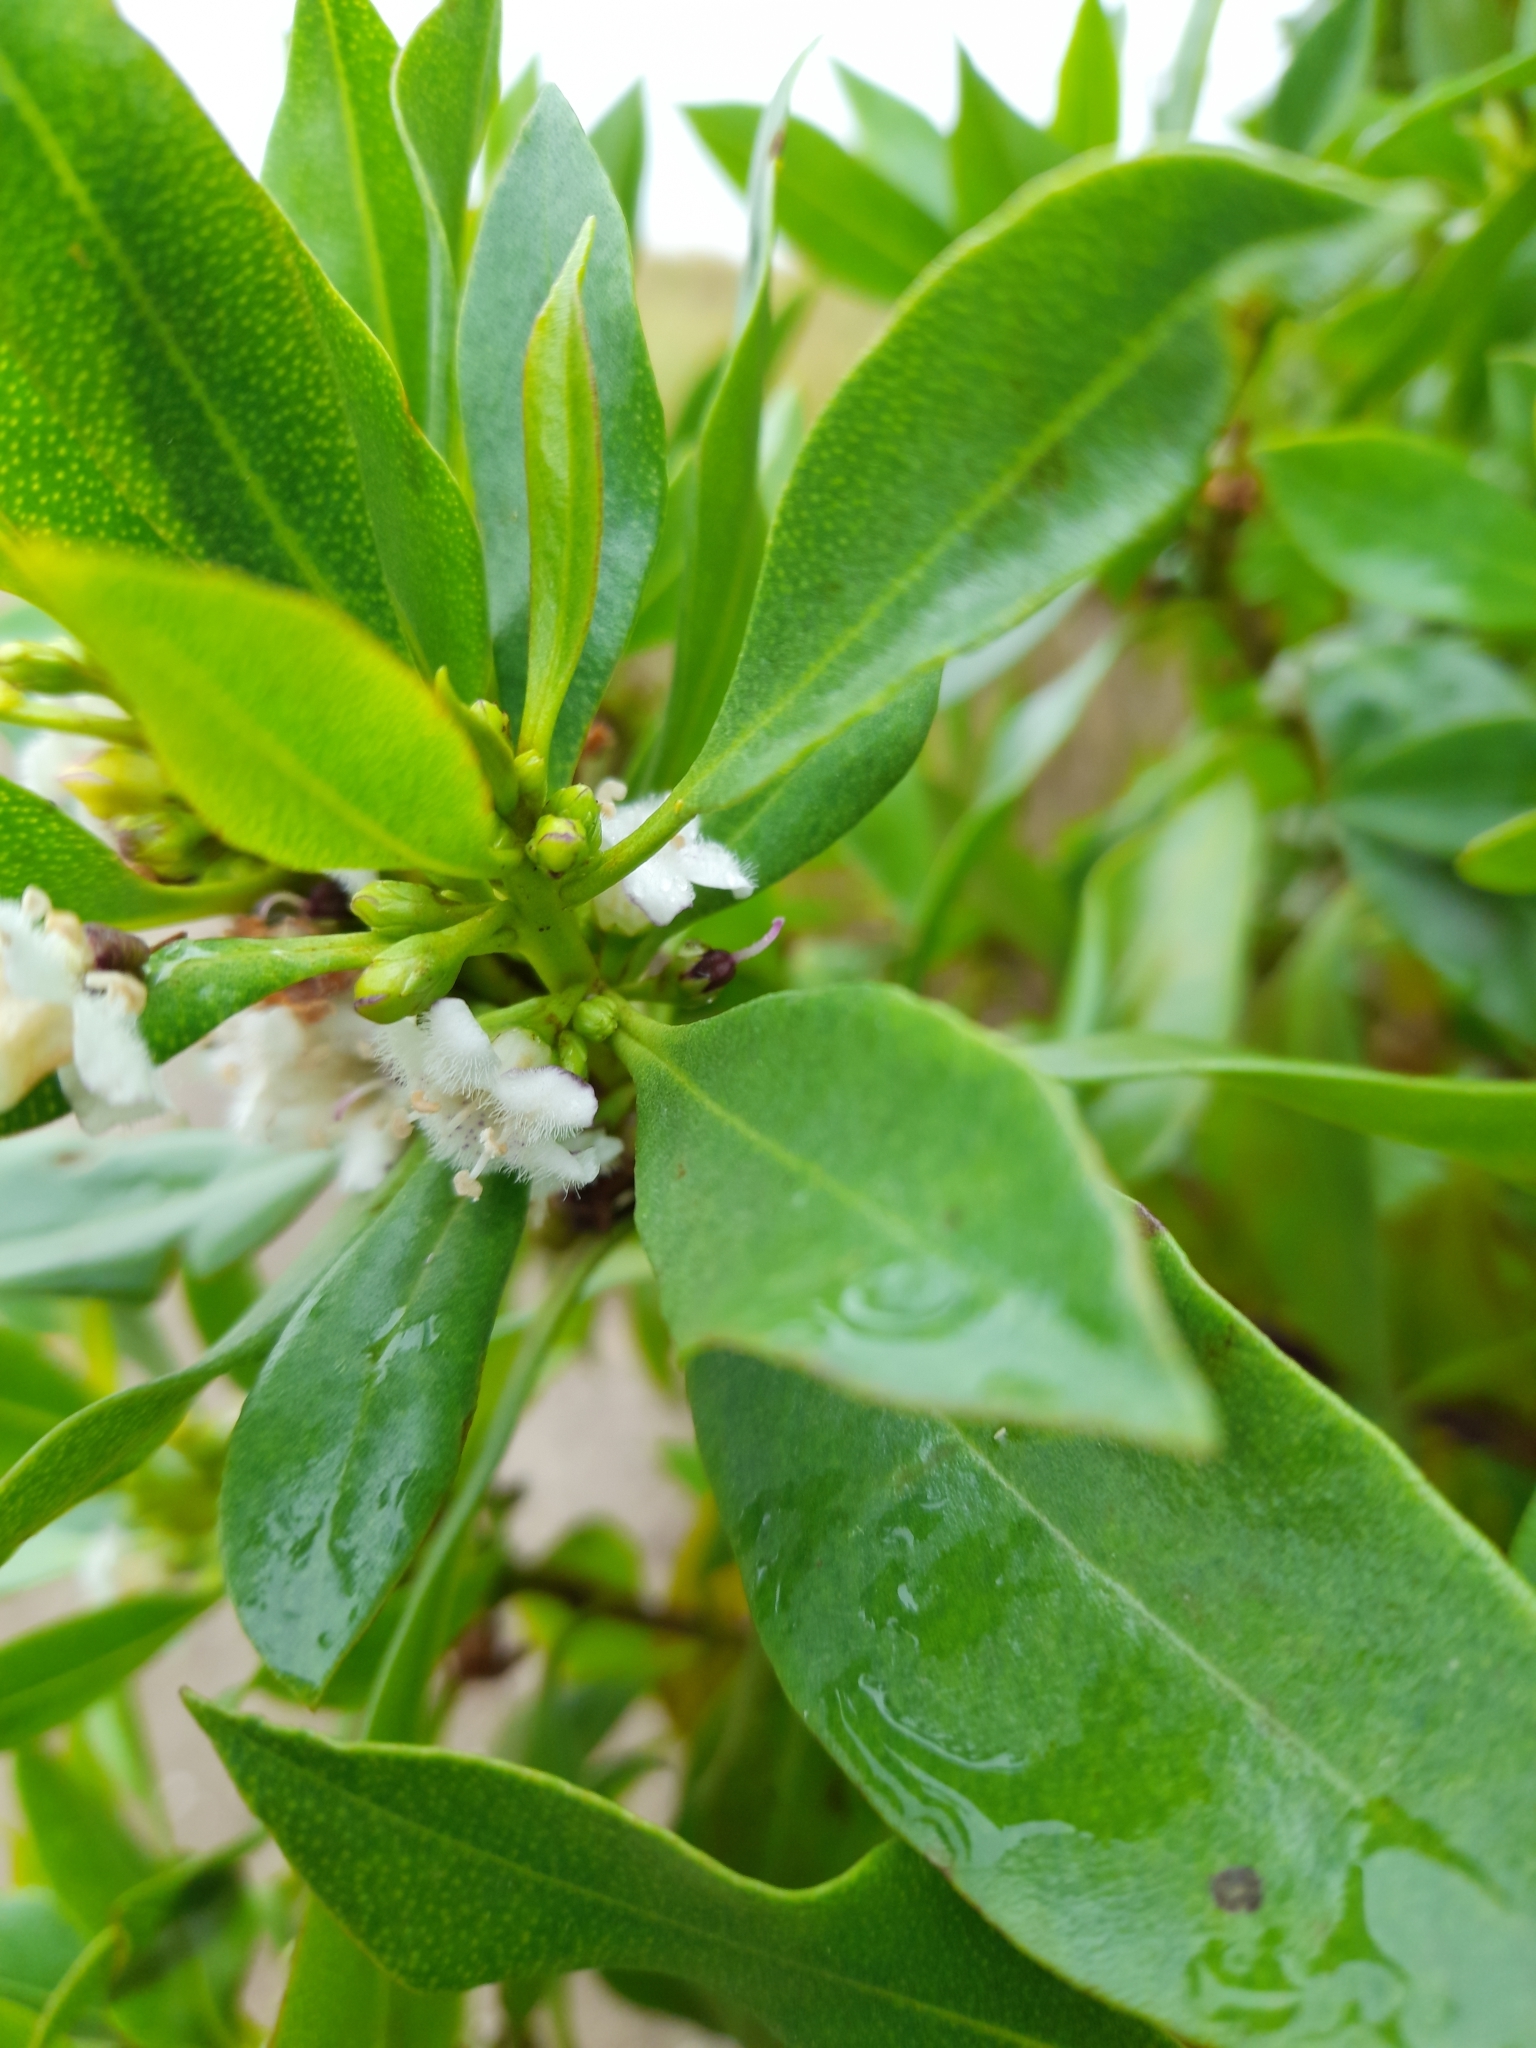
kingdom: Plantae
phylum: Tracheophyta
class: Magnoliopsida
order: Lamiales
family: Scrophulariaceae
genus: Myoporum
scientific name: Myoporum laetum
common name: Ngaio tree
